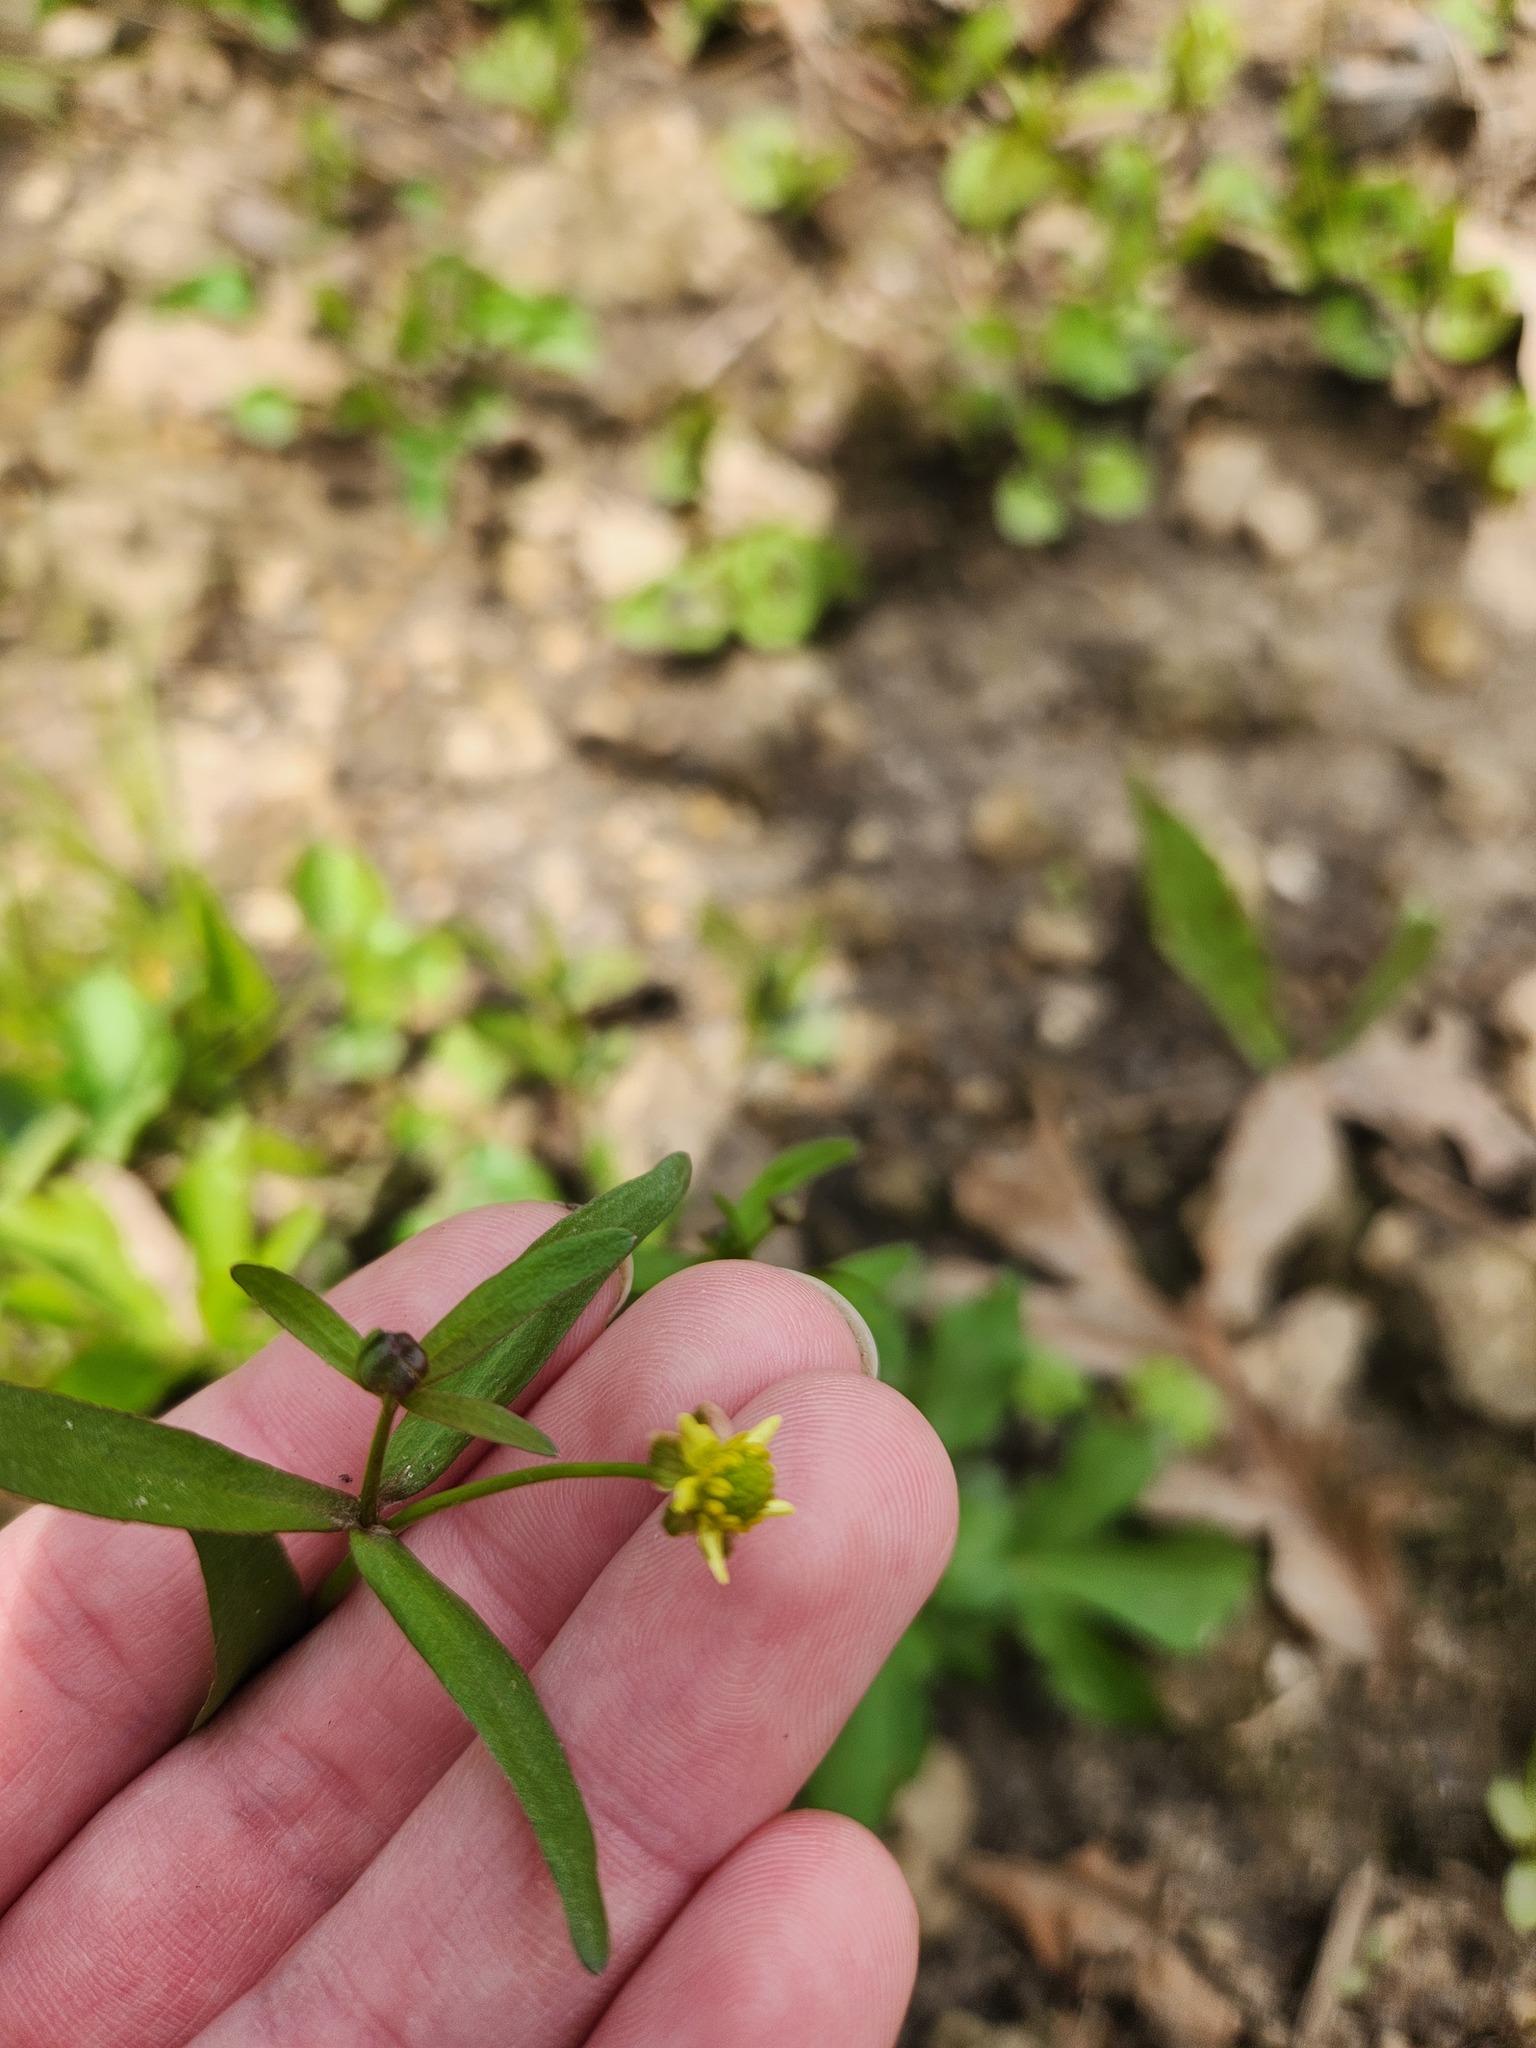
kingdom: Plantae
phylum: Tracheophyta
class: Magnoliopsida
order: Ranunculales
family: Ranunculaceae
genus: Ranunculus
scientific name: Ranunculus abortivus
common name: Early wood buttercup
